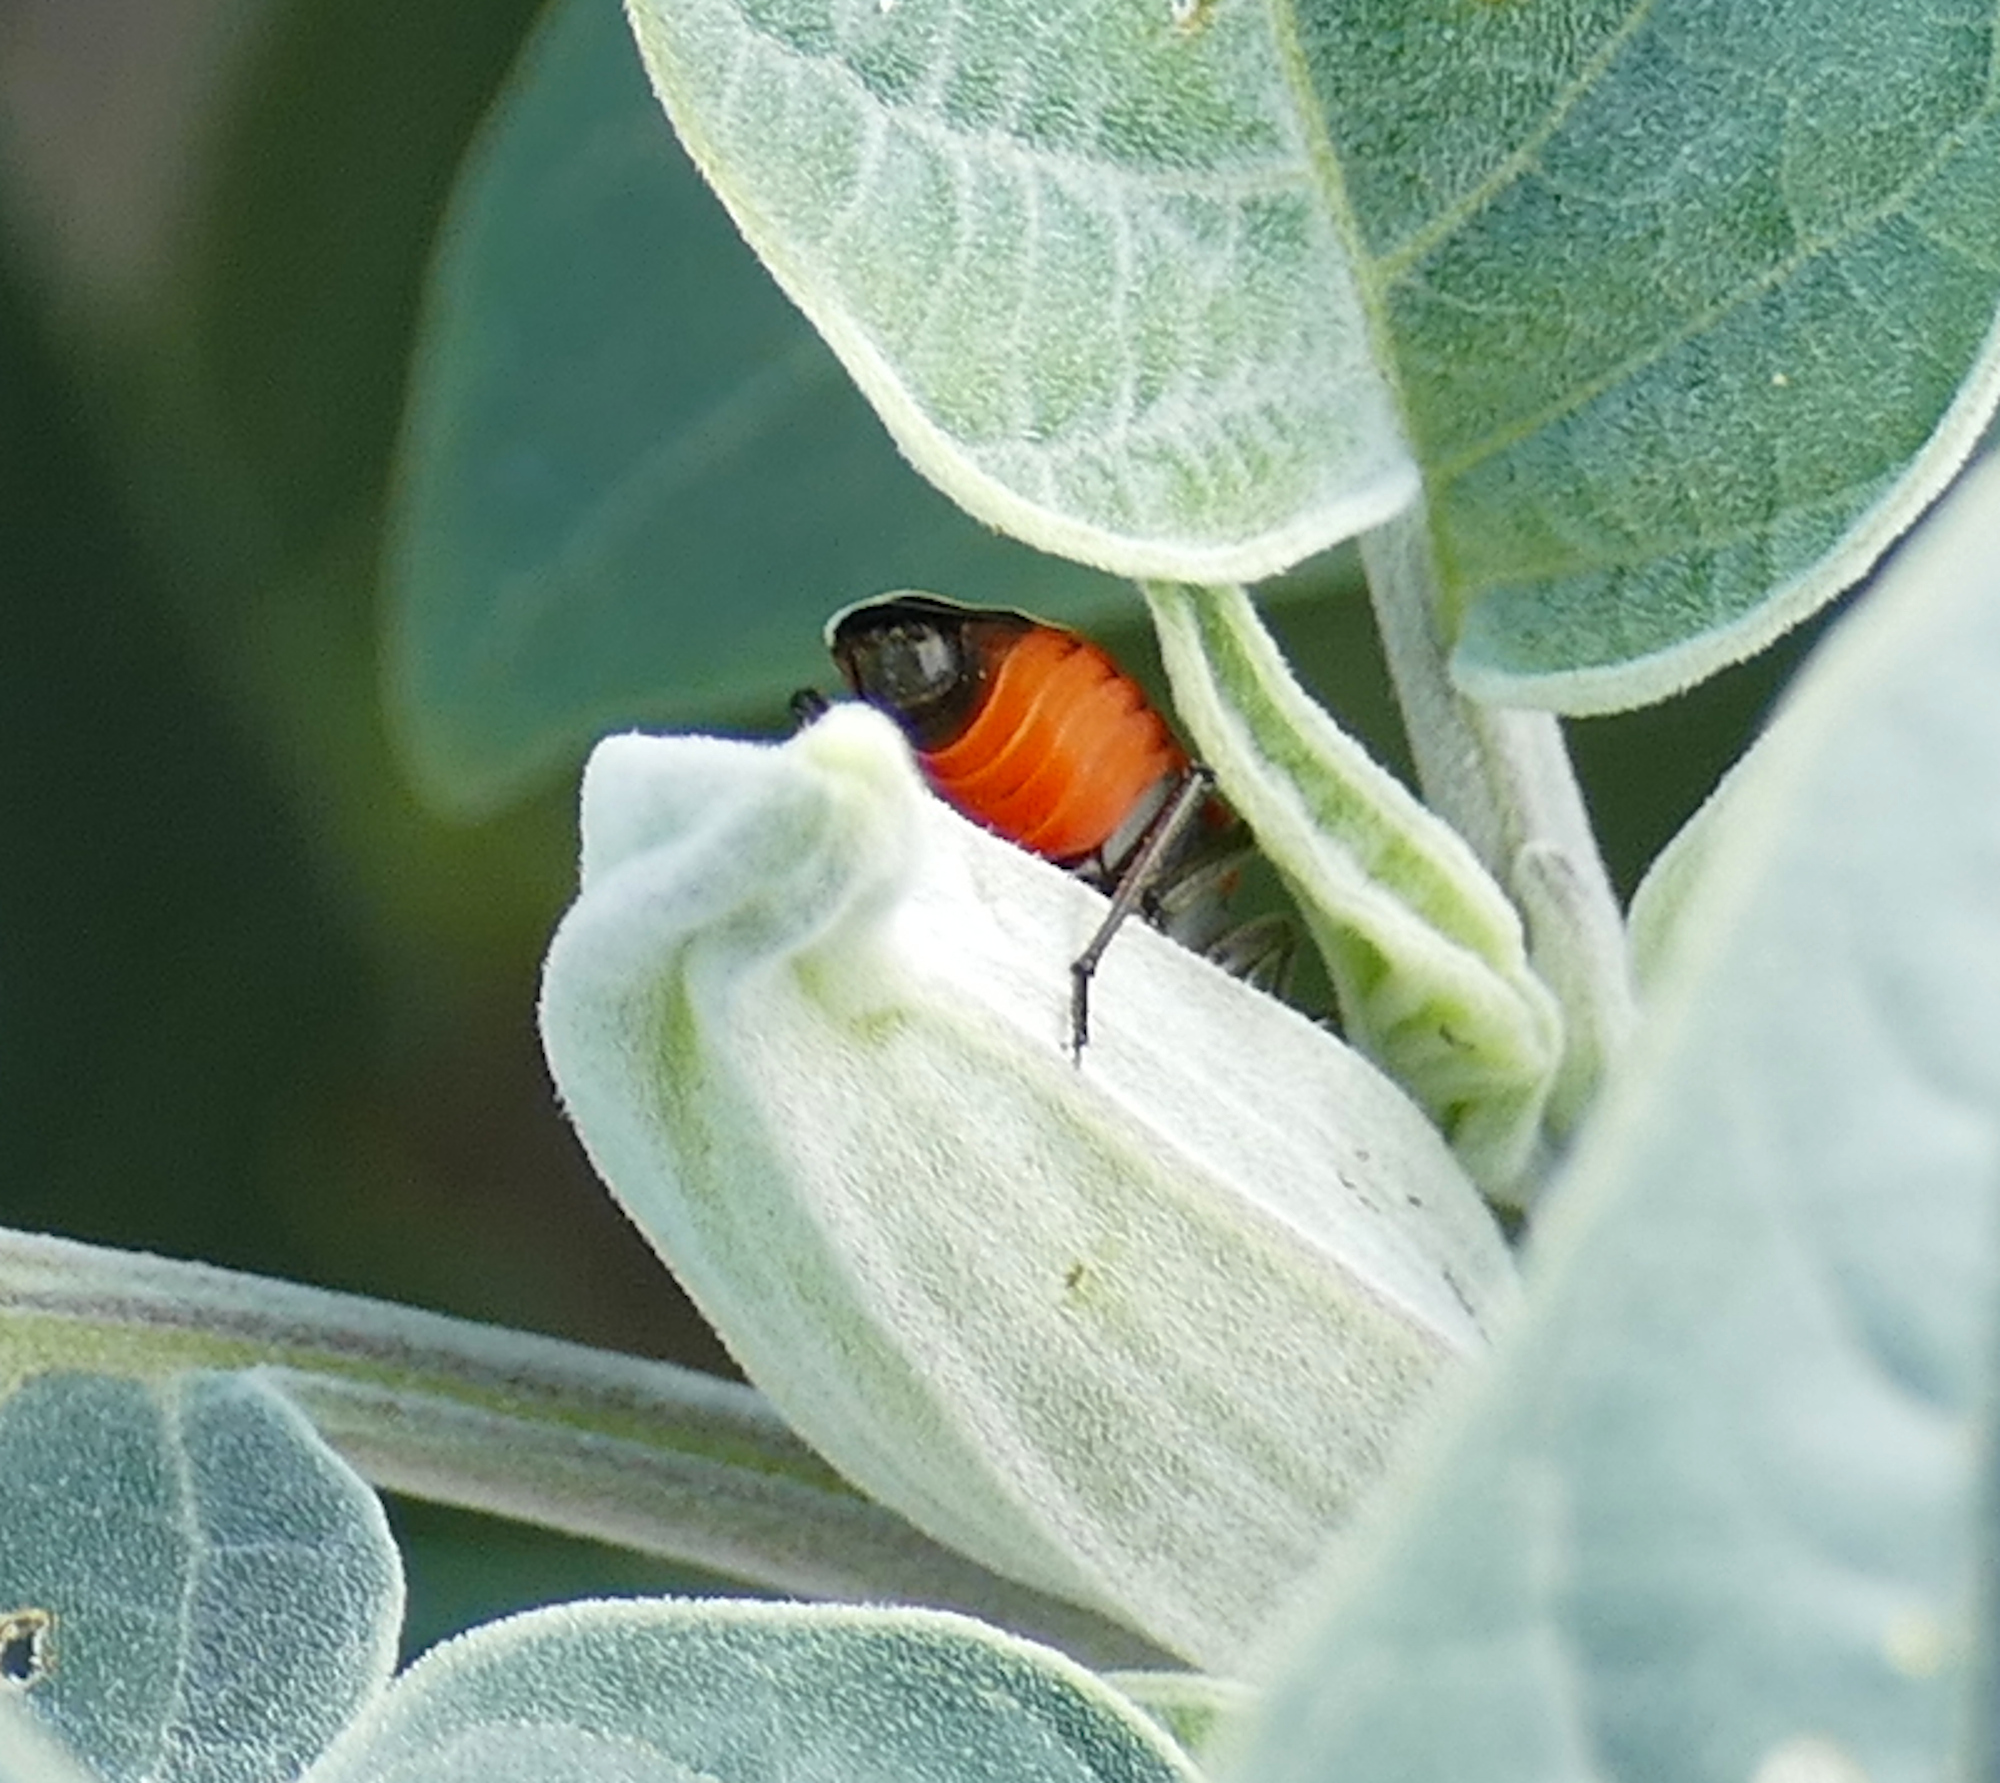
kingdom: Animalia
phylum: Arthropoda
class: Insecta
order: Hemiptera
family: Lygaeidae
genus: Lygaeus
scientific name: Lygaeus reclivatus
